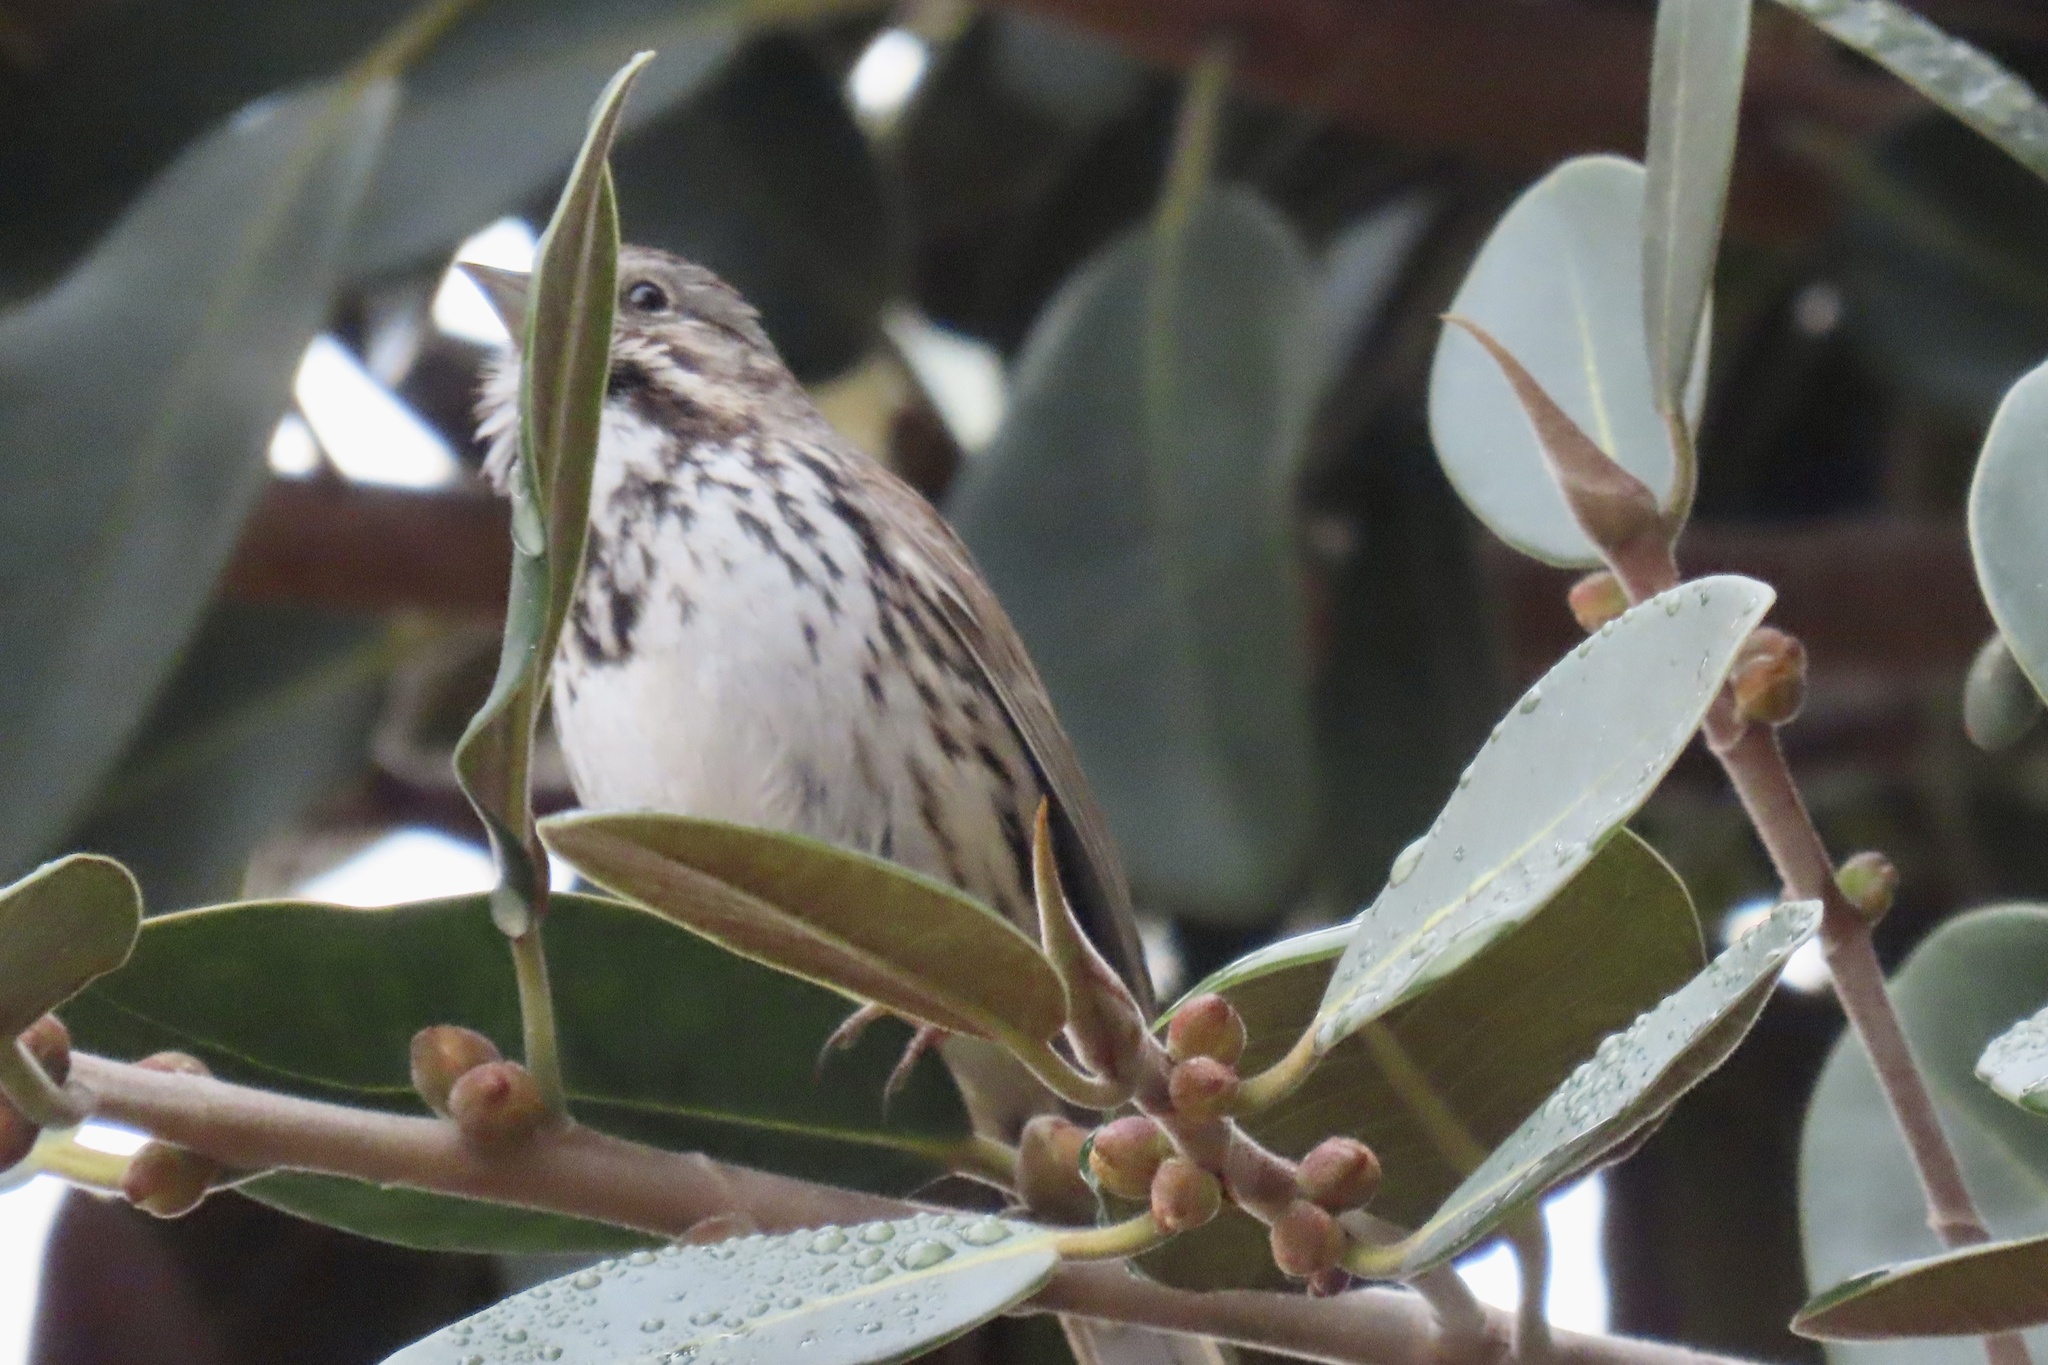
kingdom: Animalia
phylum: Chordata
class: Aves
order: Passeriformes
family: Passerellidae
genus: Melospiza
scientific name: Melospiza melodia
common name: Song sparrow
